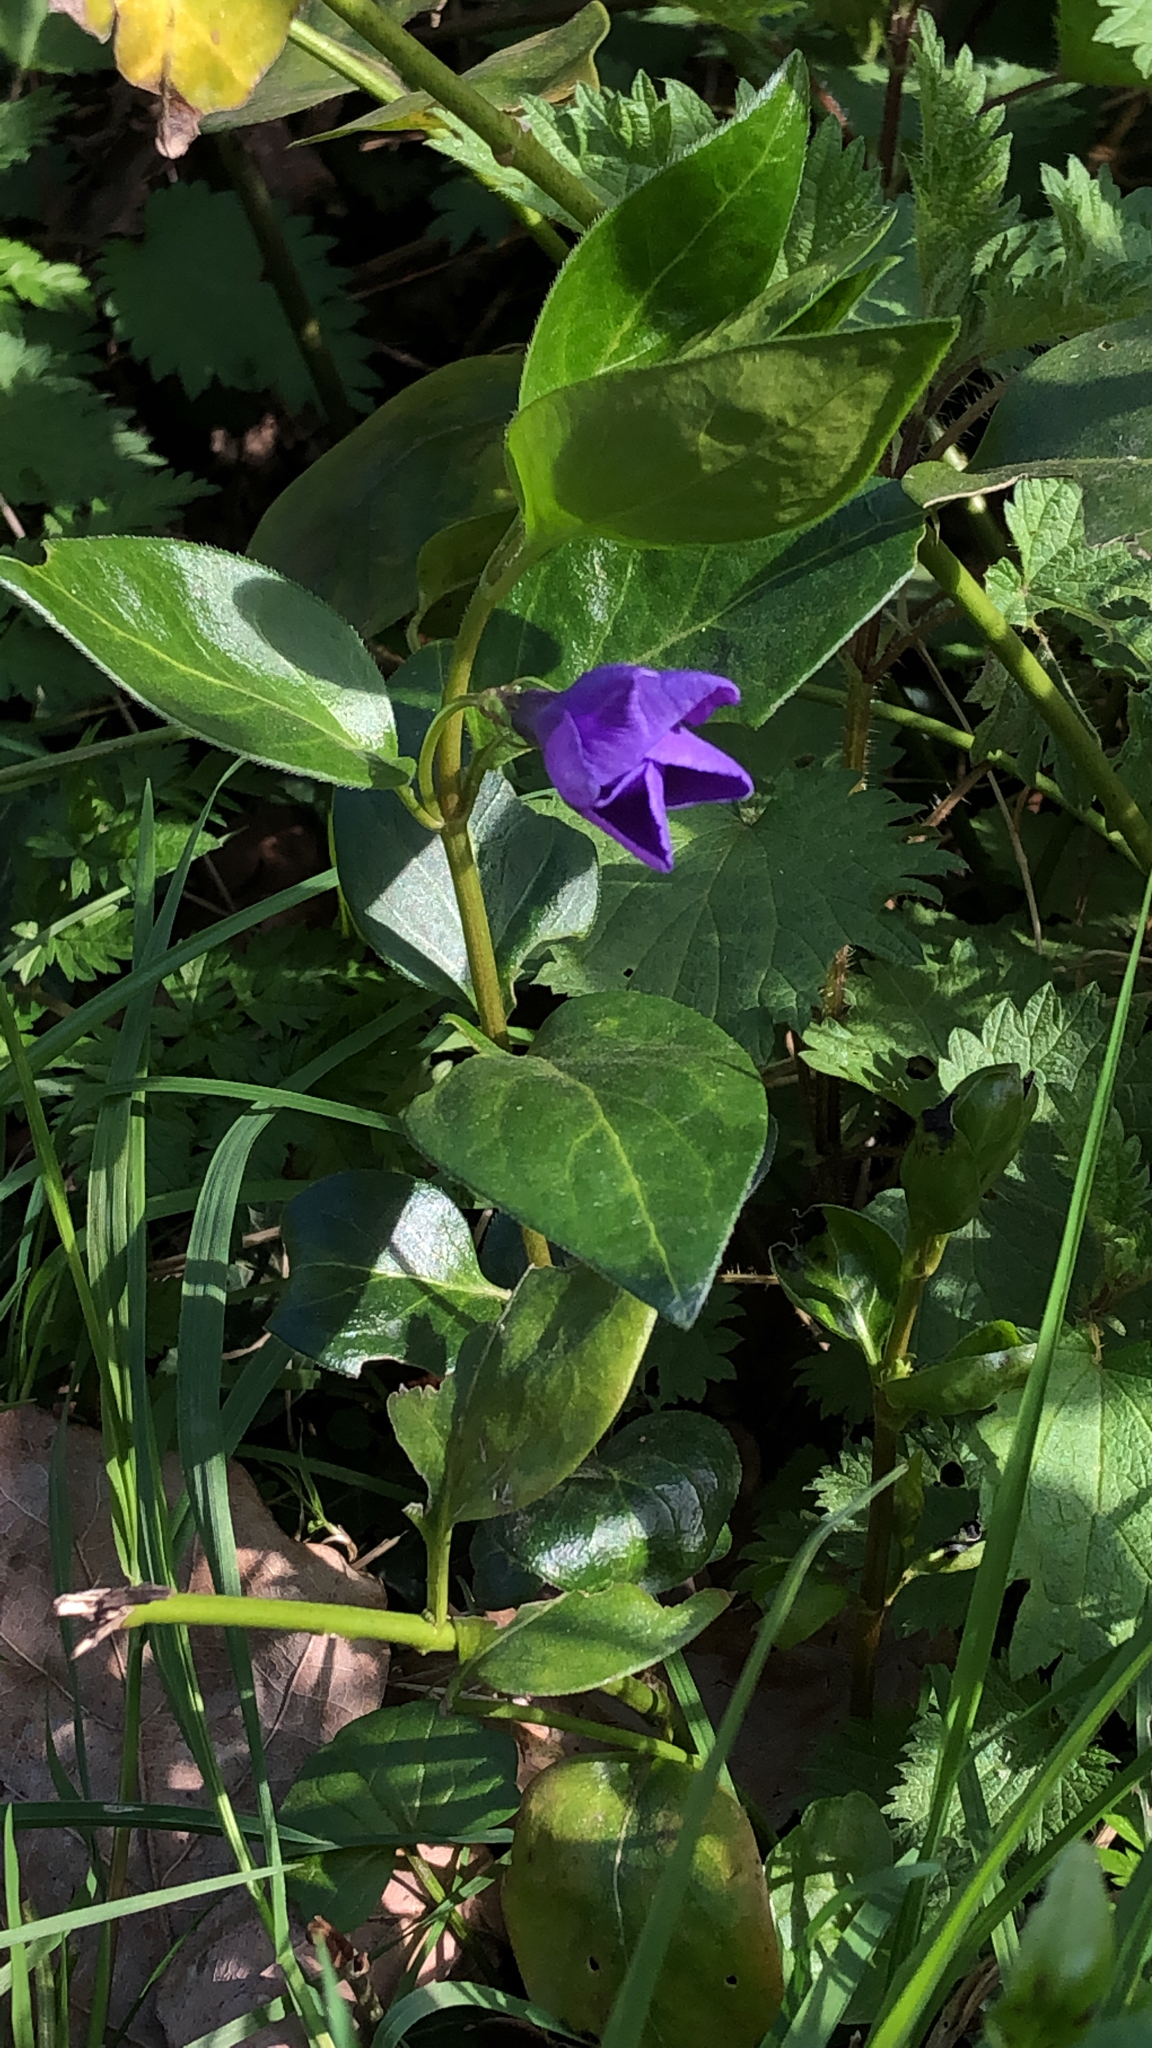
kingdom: Plantae
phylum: Tracheophyta
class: Magnoliopsida
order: Gentianales
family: Apocynaceae
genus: Vinca
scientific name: Vinca major
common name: Greater periwinkle
